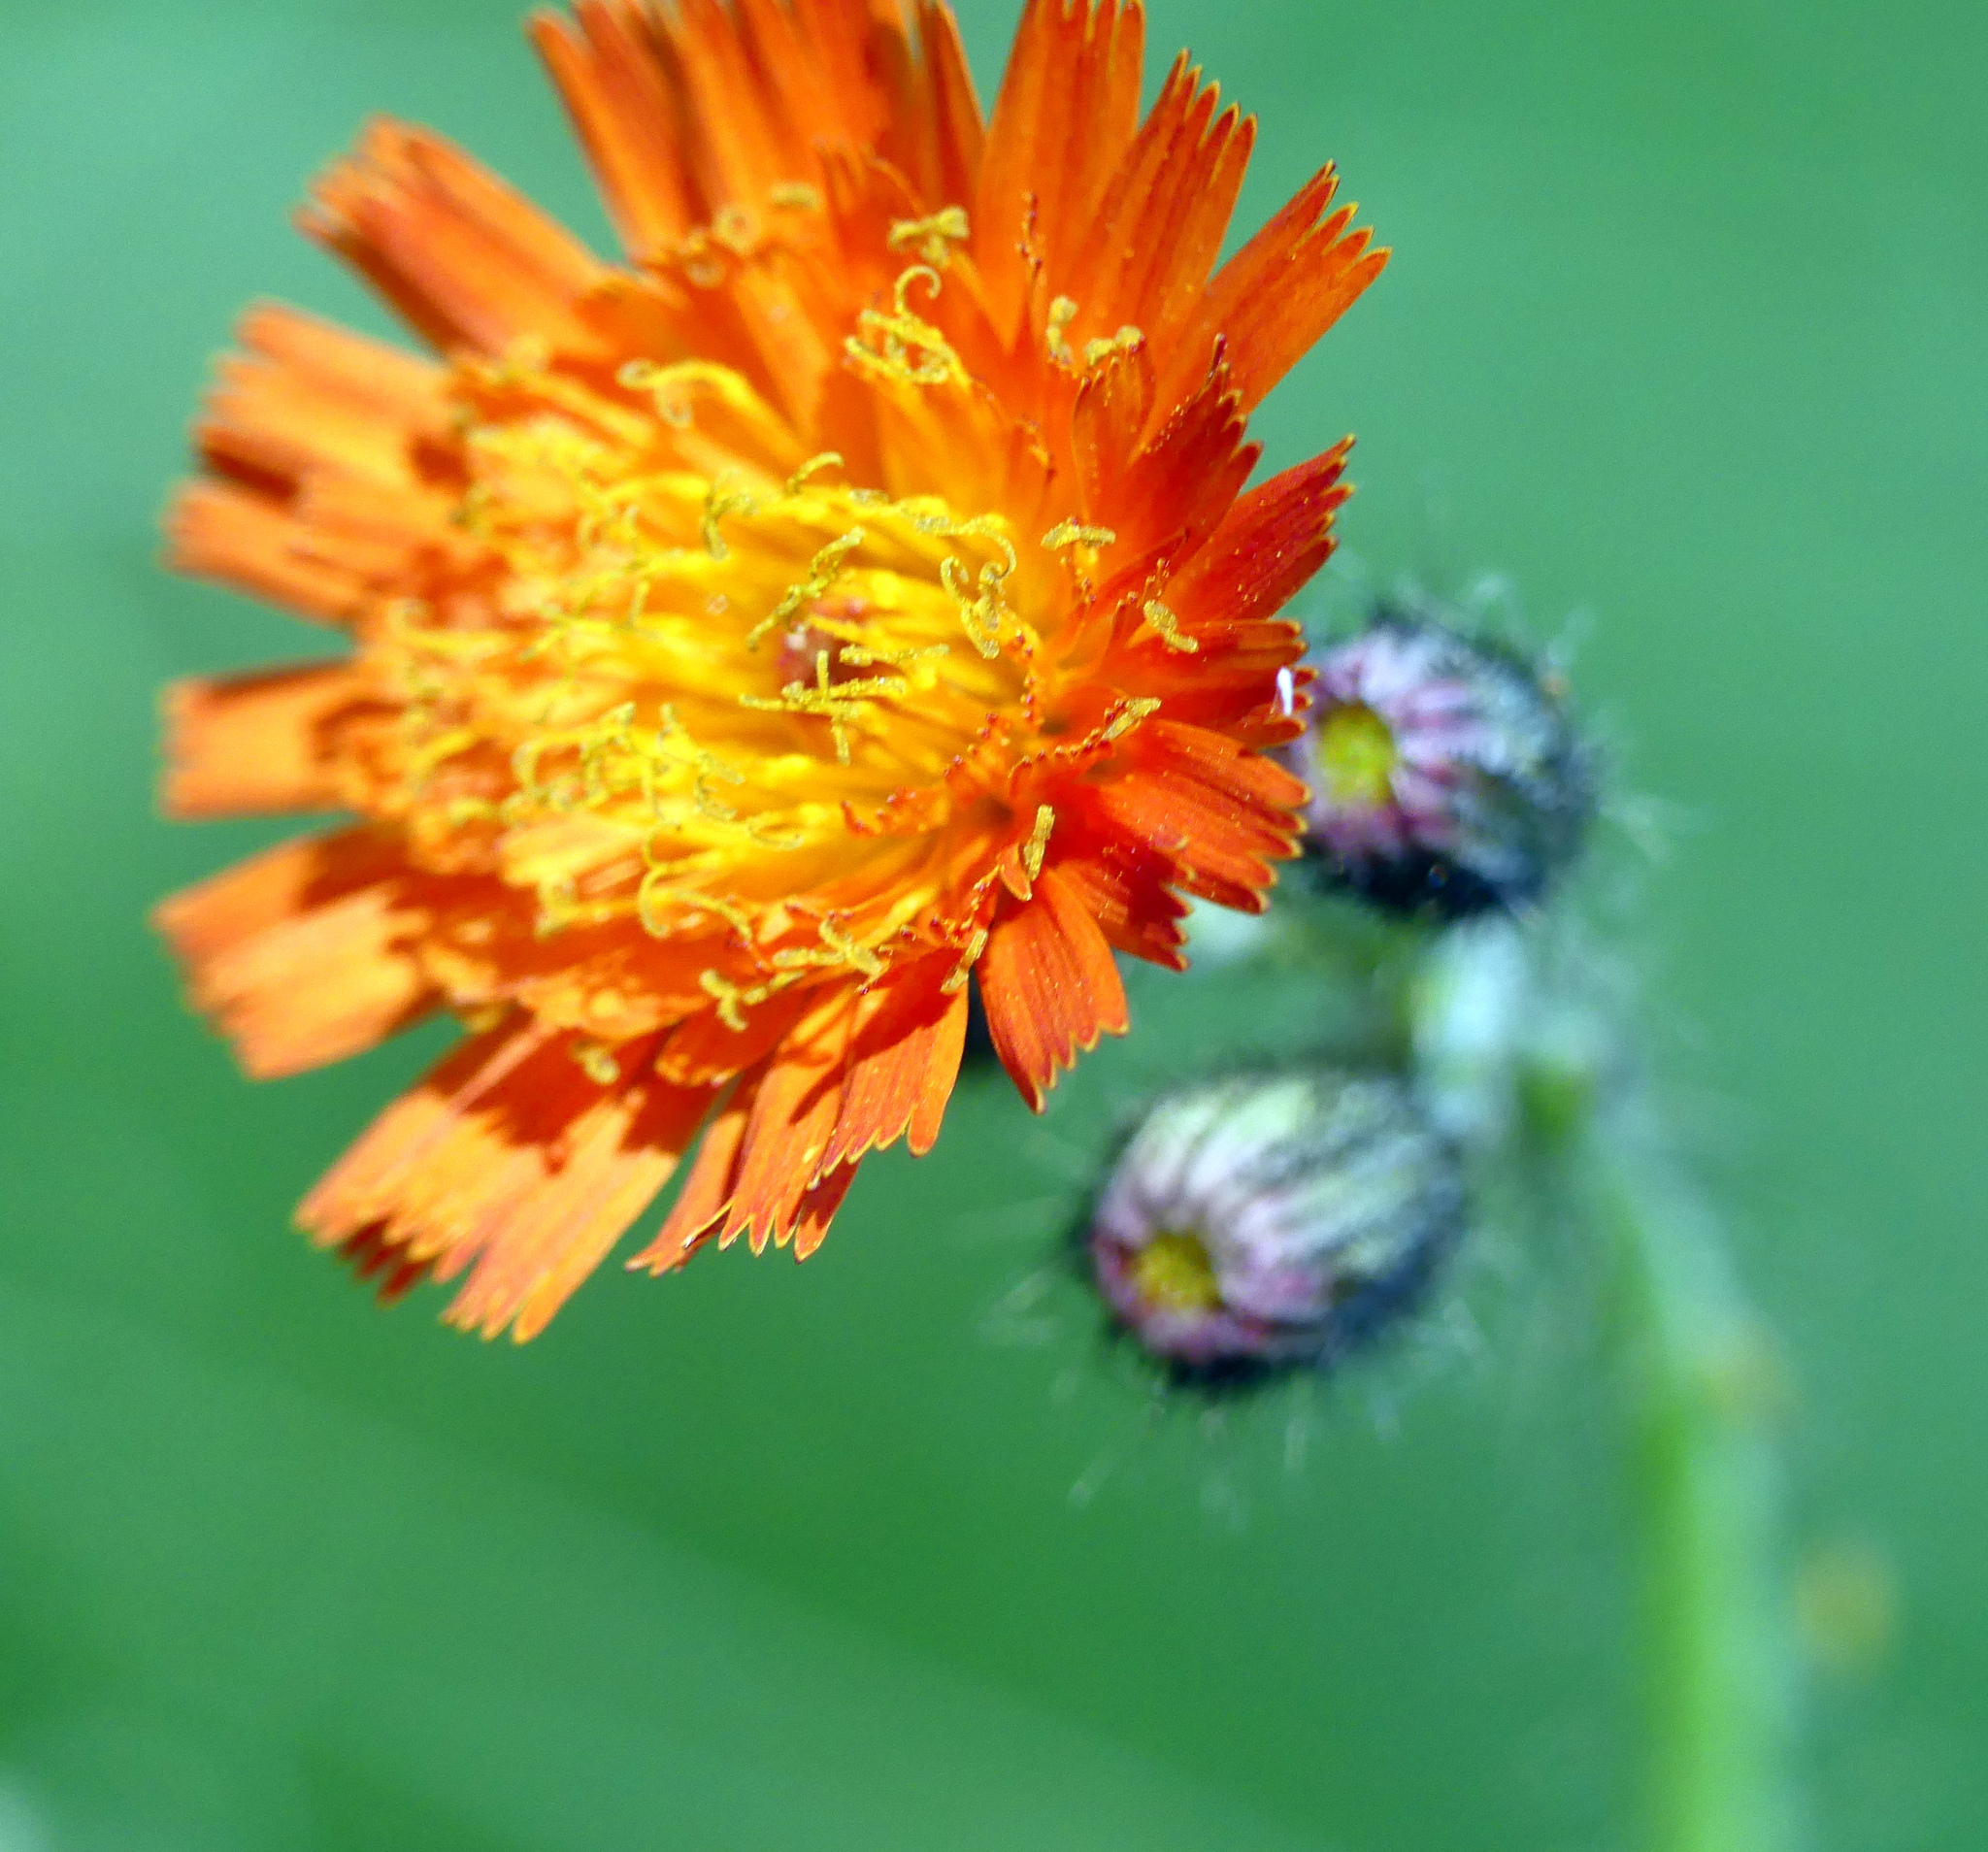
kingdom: Plantae
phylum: Tracheophyta
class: Magnoliopsida
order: Asterales
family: Asteraceae
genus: Pilosella
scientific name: Pilosella aurantiaca
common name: Fox-and-cubs
